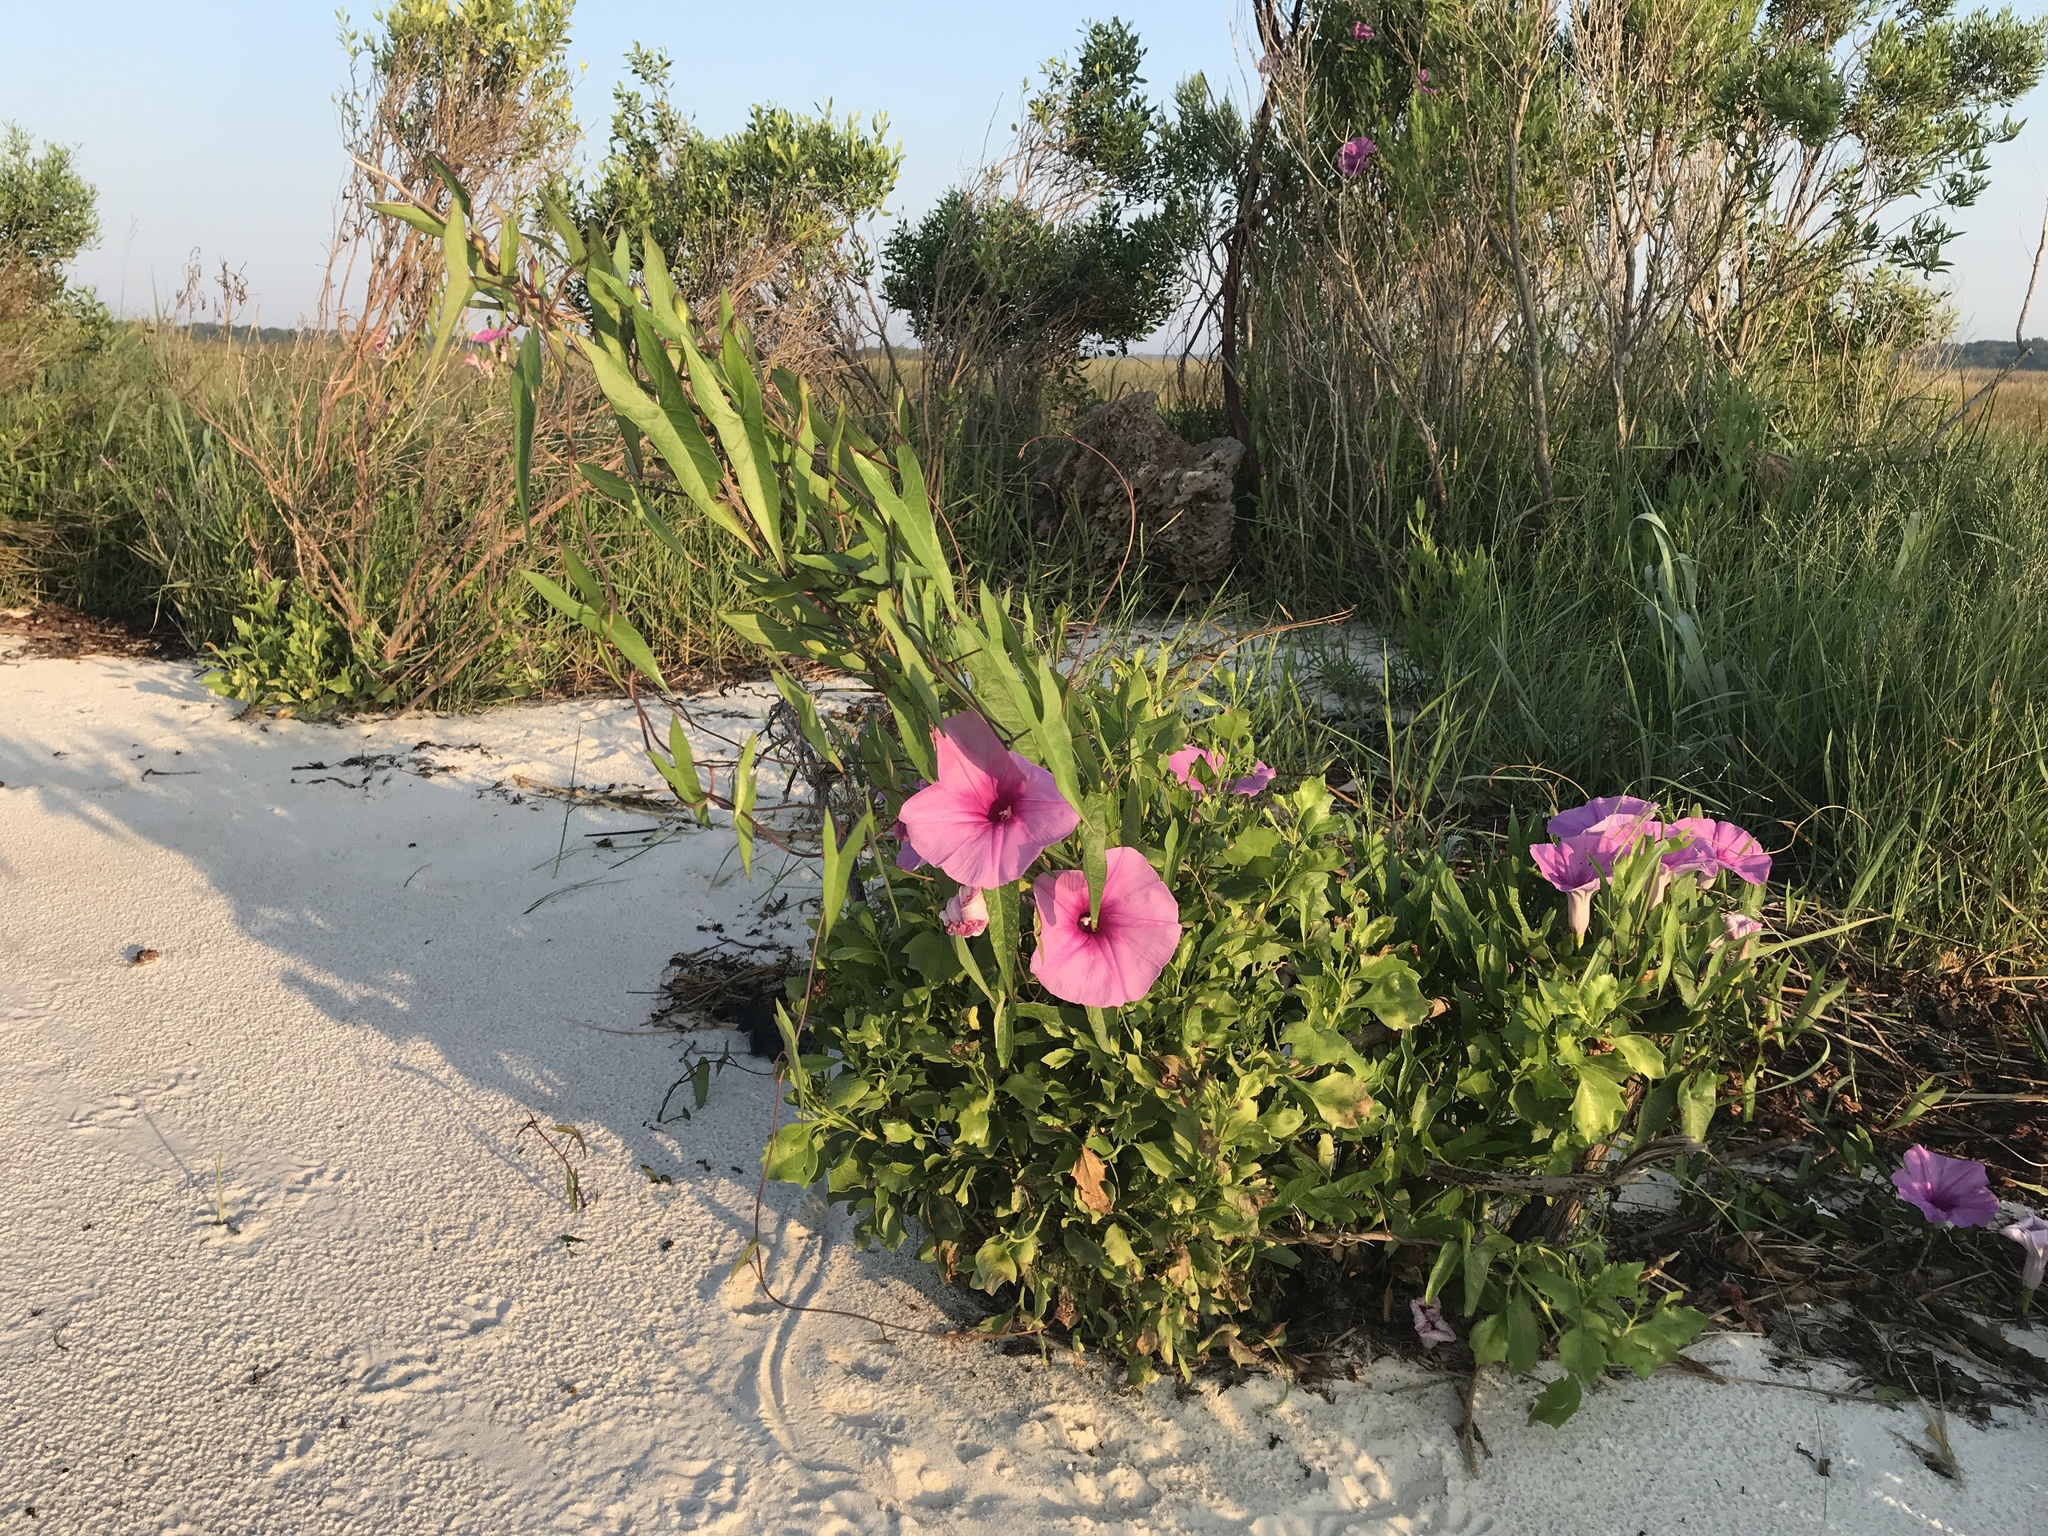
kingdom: Plantae
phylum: Tracheophyta
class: Magnoliopsida
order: Solanales
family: Convolvulaceae
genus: Ipomoea
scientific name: Ipomoea sagittata
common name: Saltmarsh morning glory
